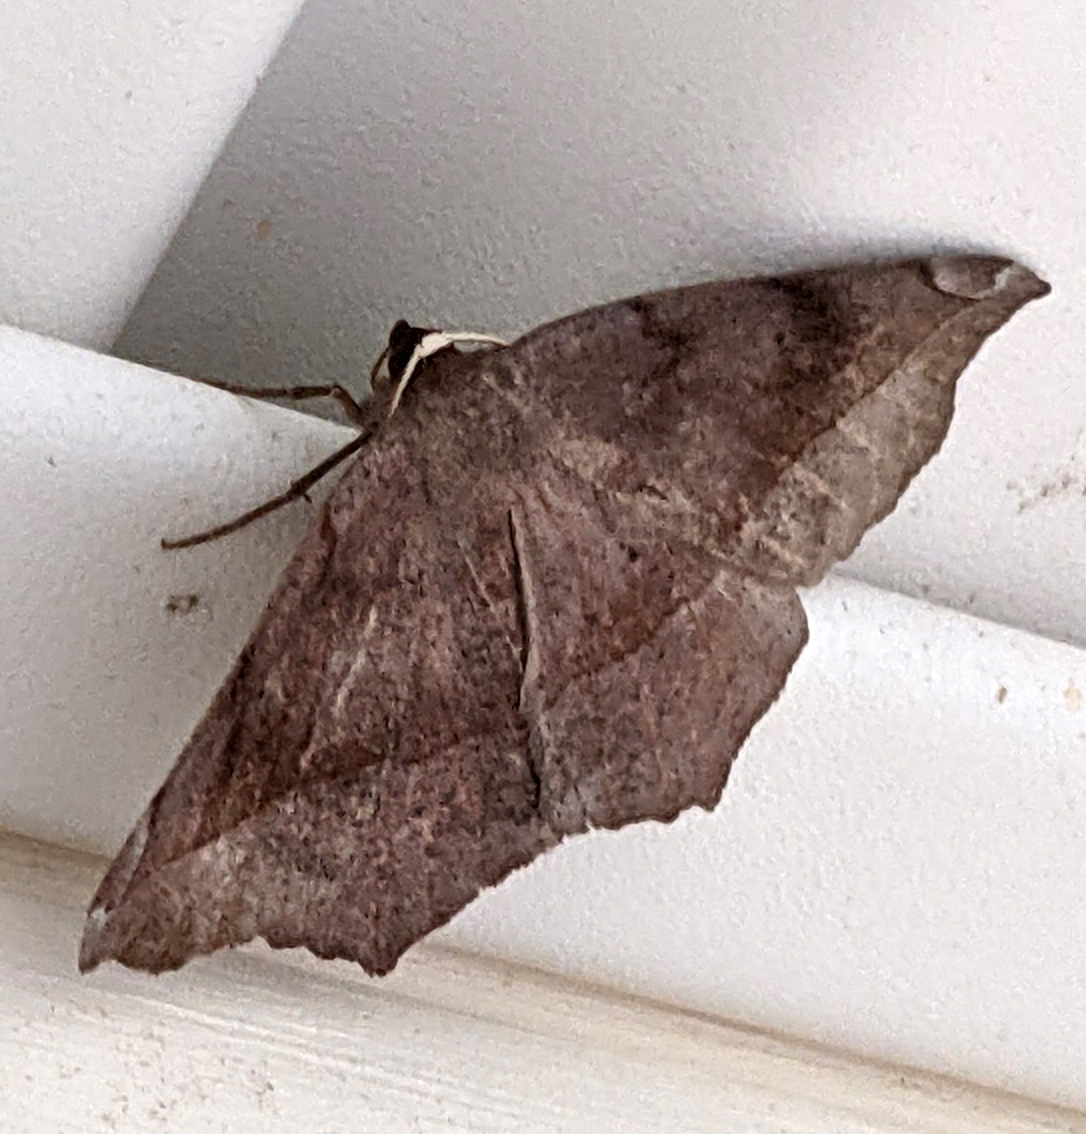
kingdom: Animalia
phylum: Arthropoda
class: Insecta
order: Lepidoptera
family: Geometridae
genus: Eutrapela
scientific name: Eutrapela clemataria
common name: Curved-toothed geometer
